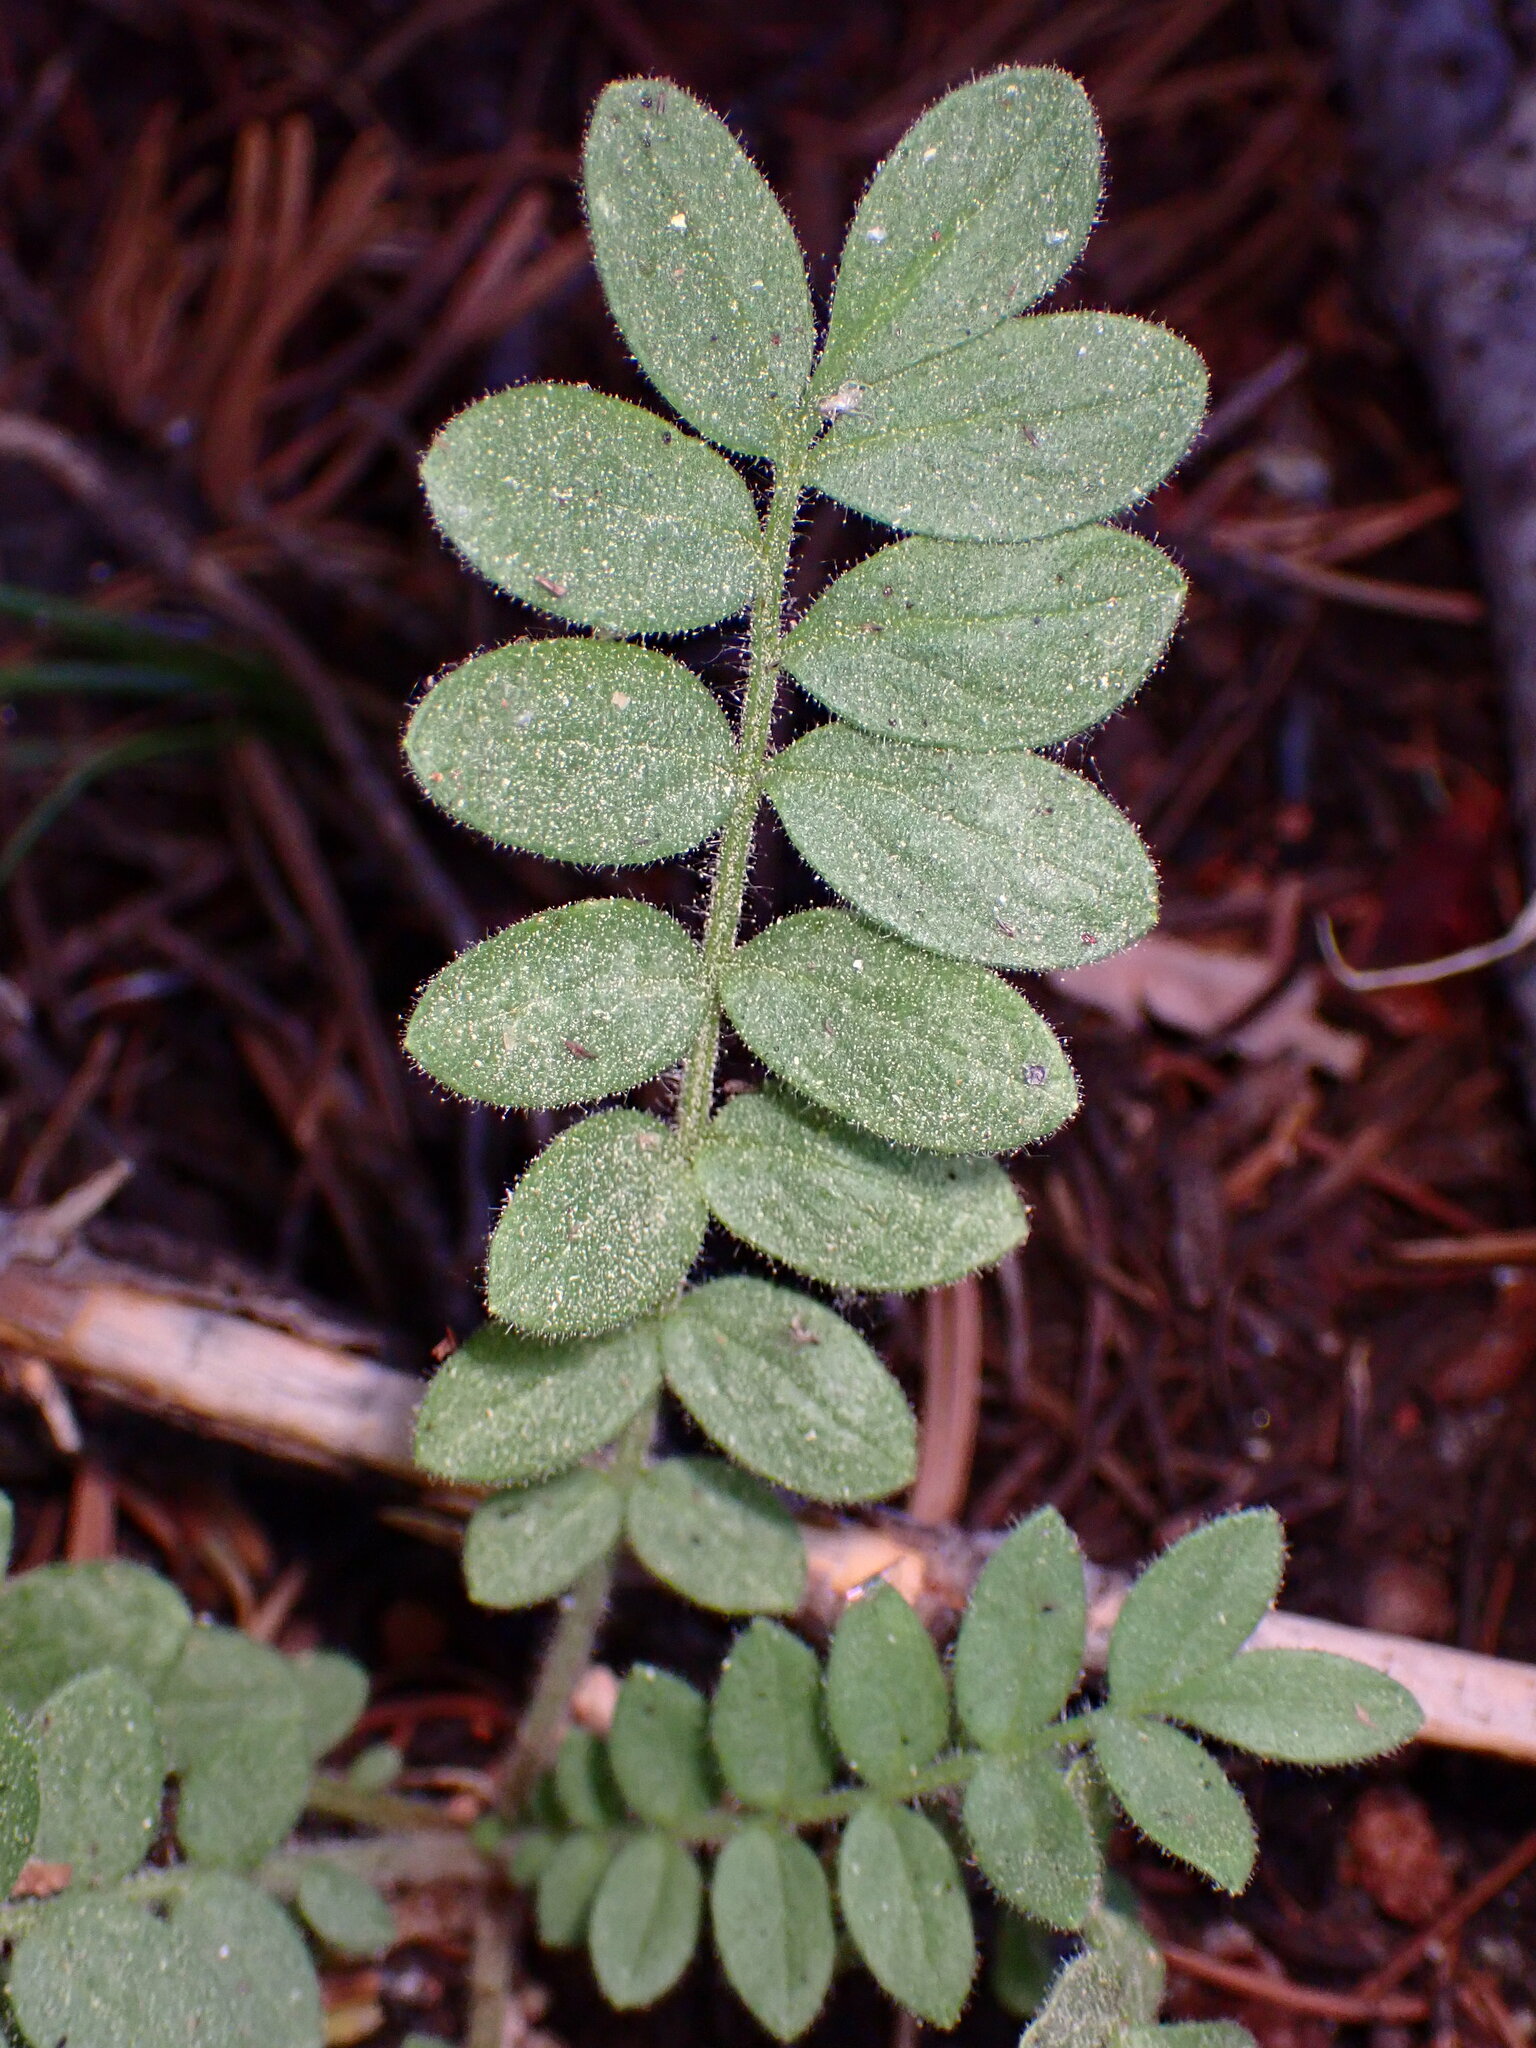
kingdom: Plantae
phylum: Tracheophyta
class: Magnoliopsida
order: Ericales
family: Polemoniaceae
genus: Polemonium
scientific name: Polemonium californicum
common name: California jacob's ladder
